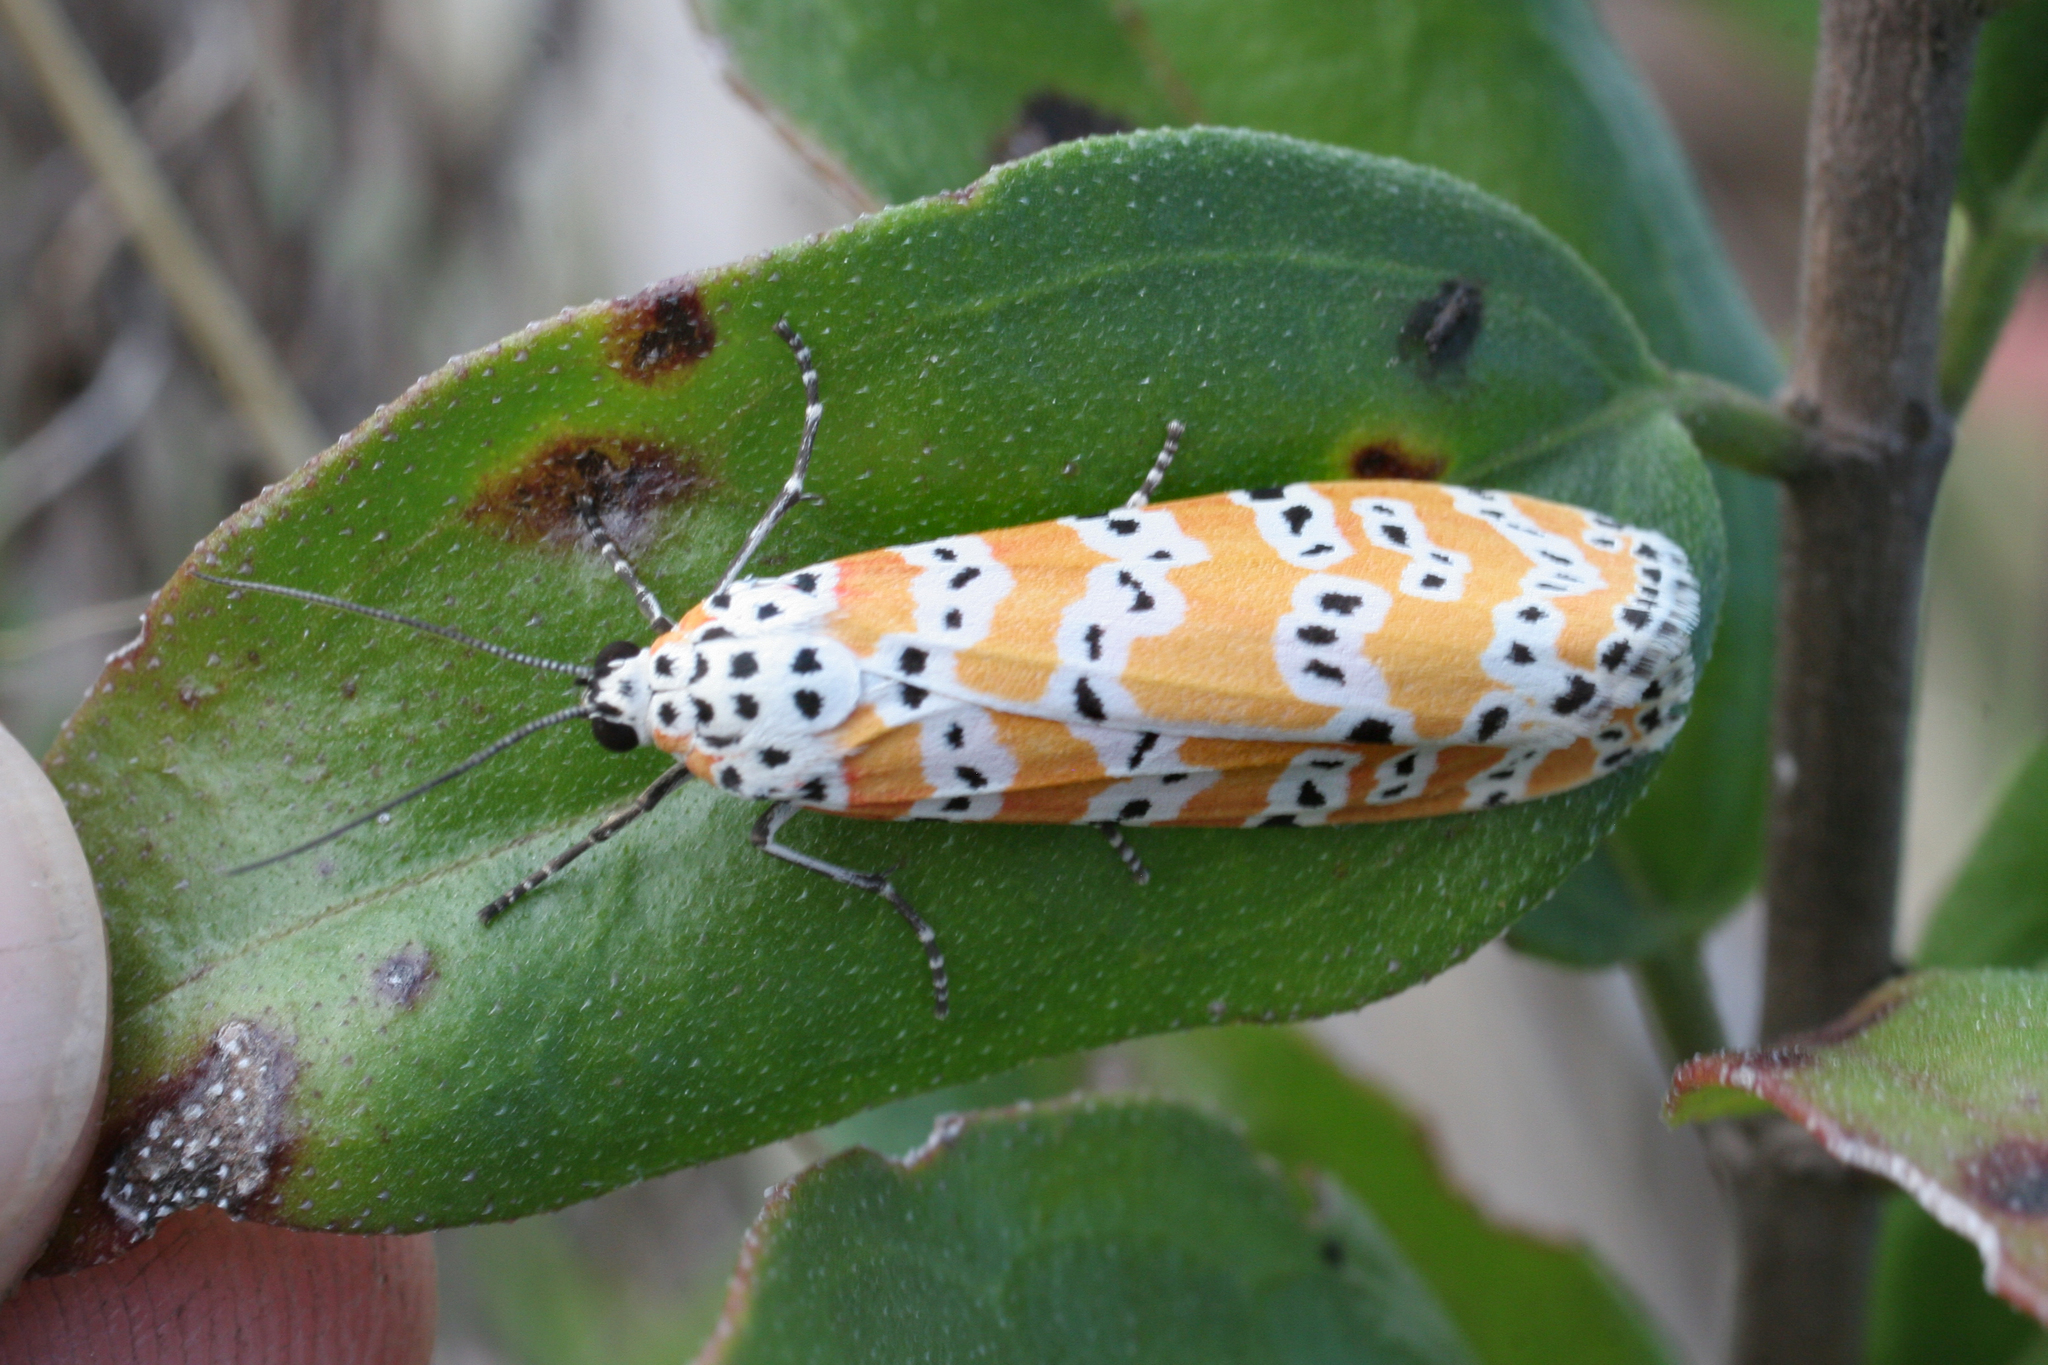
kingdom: Animalia
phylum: Arthropoda
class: Insecta
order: Lepidoptera
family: Erebidae
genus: Utetheisa
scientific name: Utetheisa ornatrix
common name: Beautiful utetheisa
